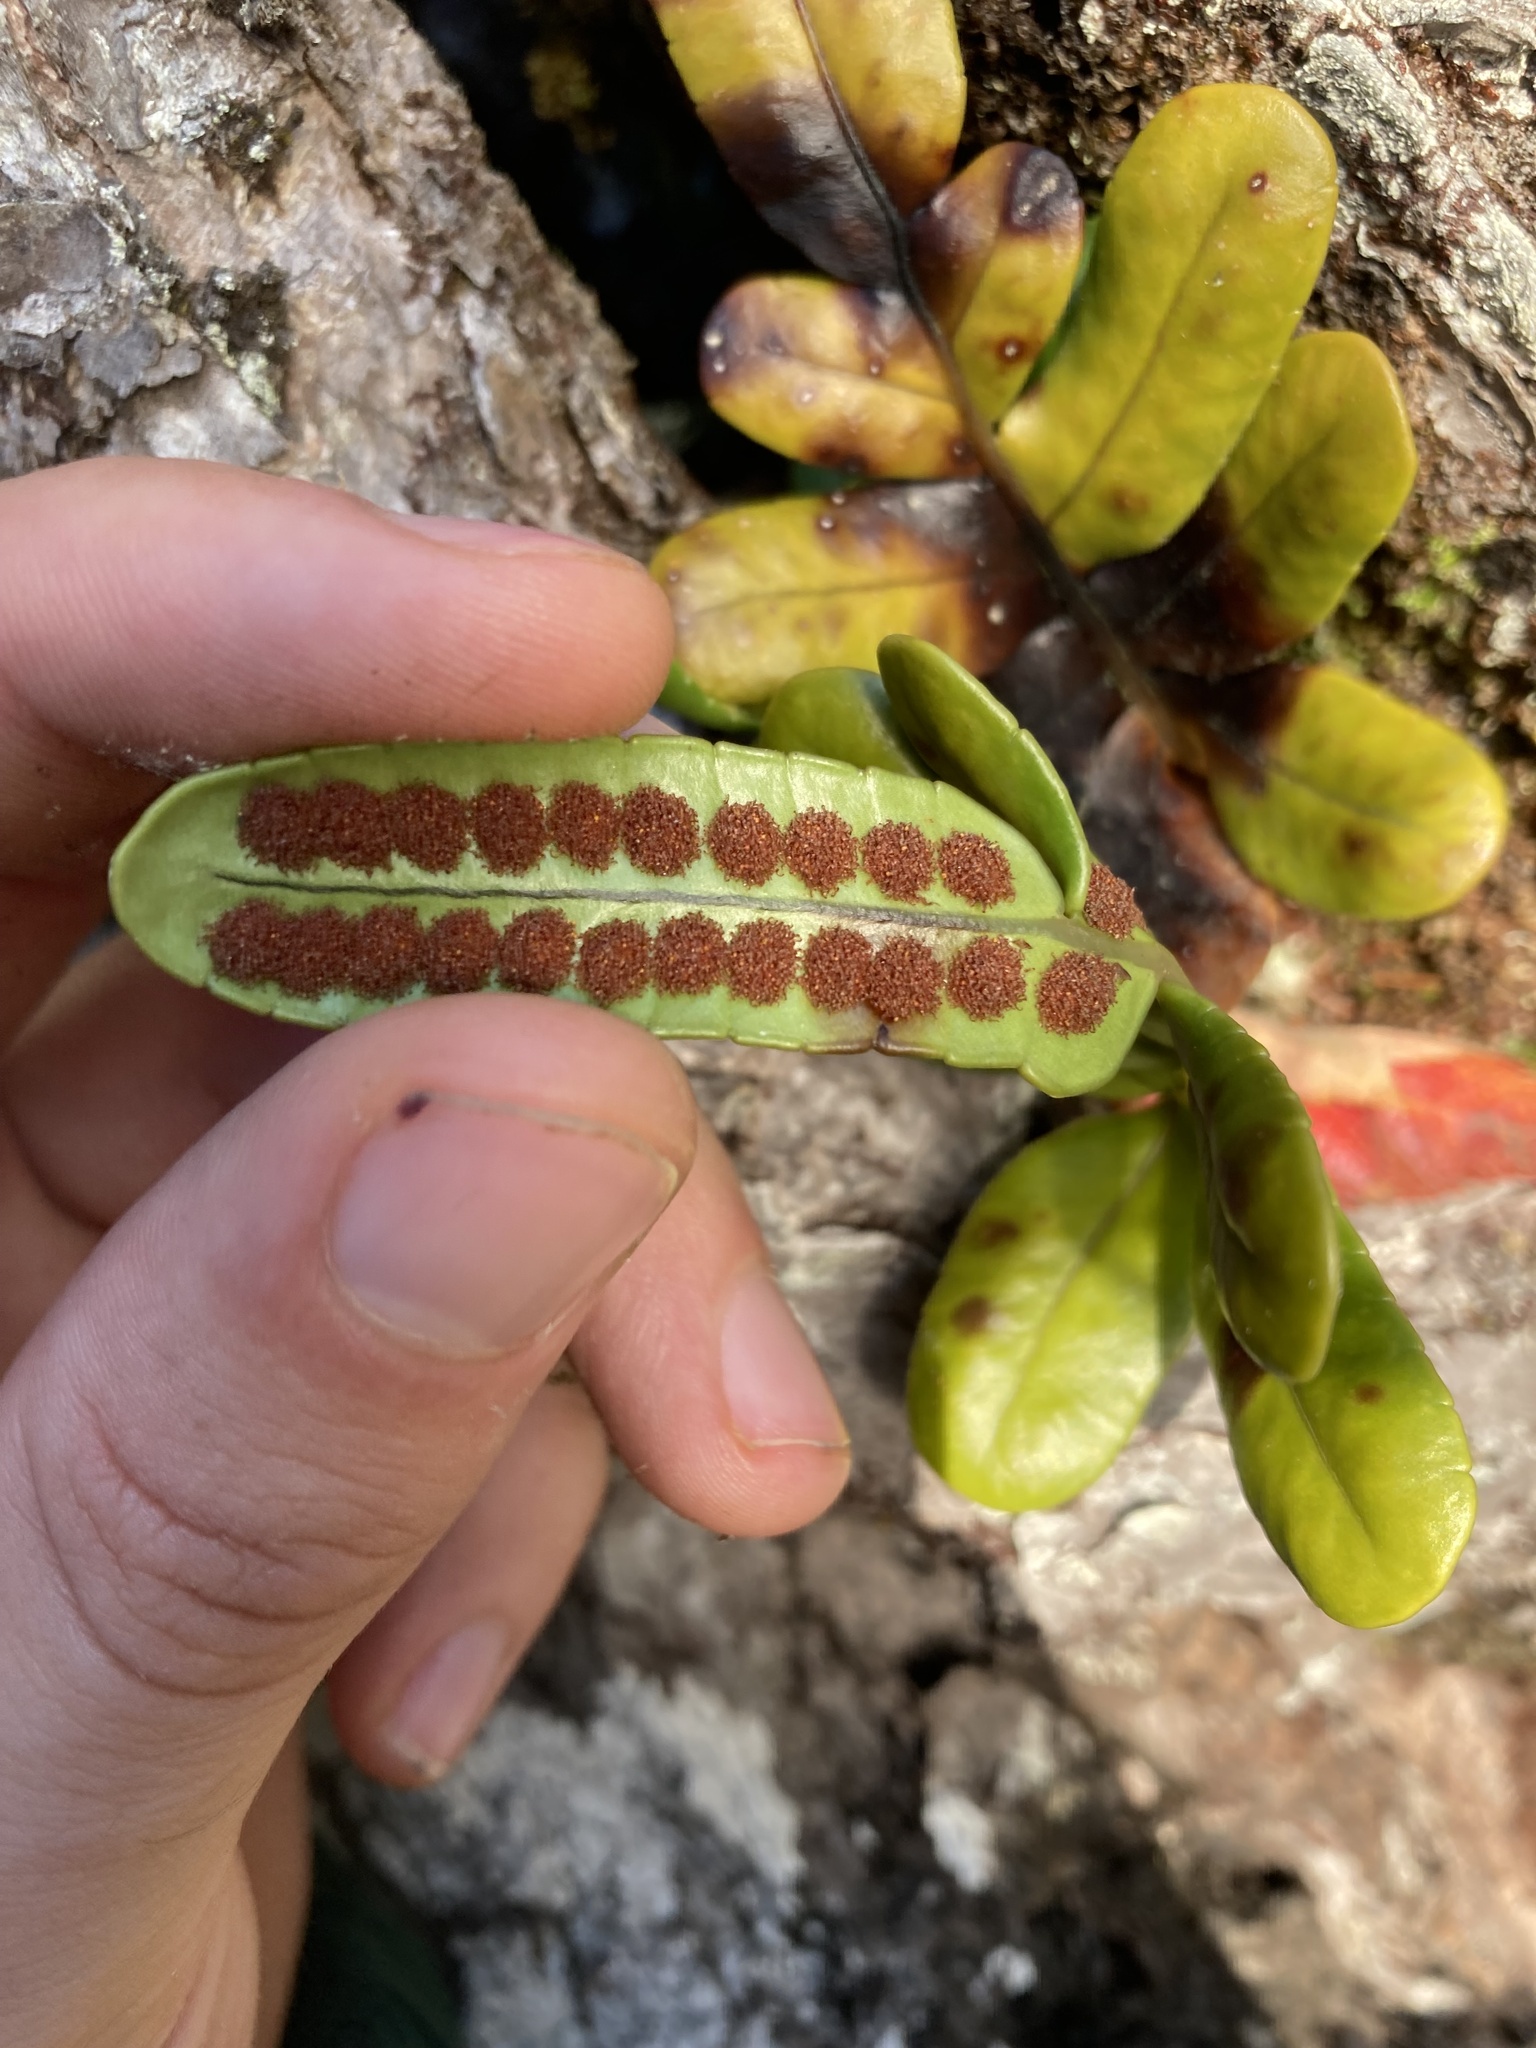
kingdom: Plantae
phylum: Tracheophyta
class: Polypodiopsida
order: Polypodiales
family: Polypodiaceae
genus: Polypodium
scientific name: Polypodium scouleri
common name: Scouler's polypody
